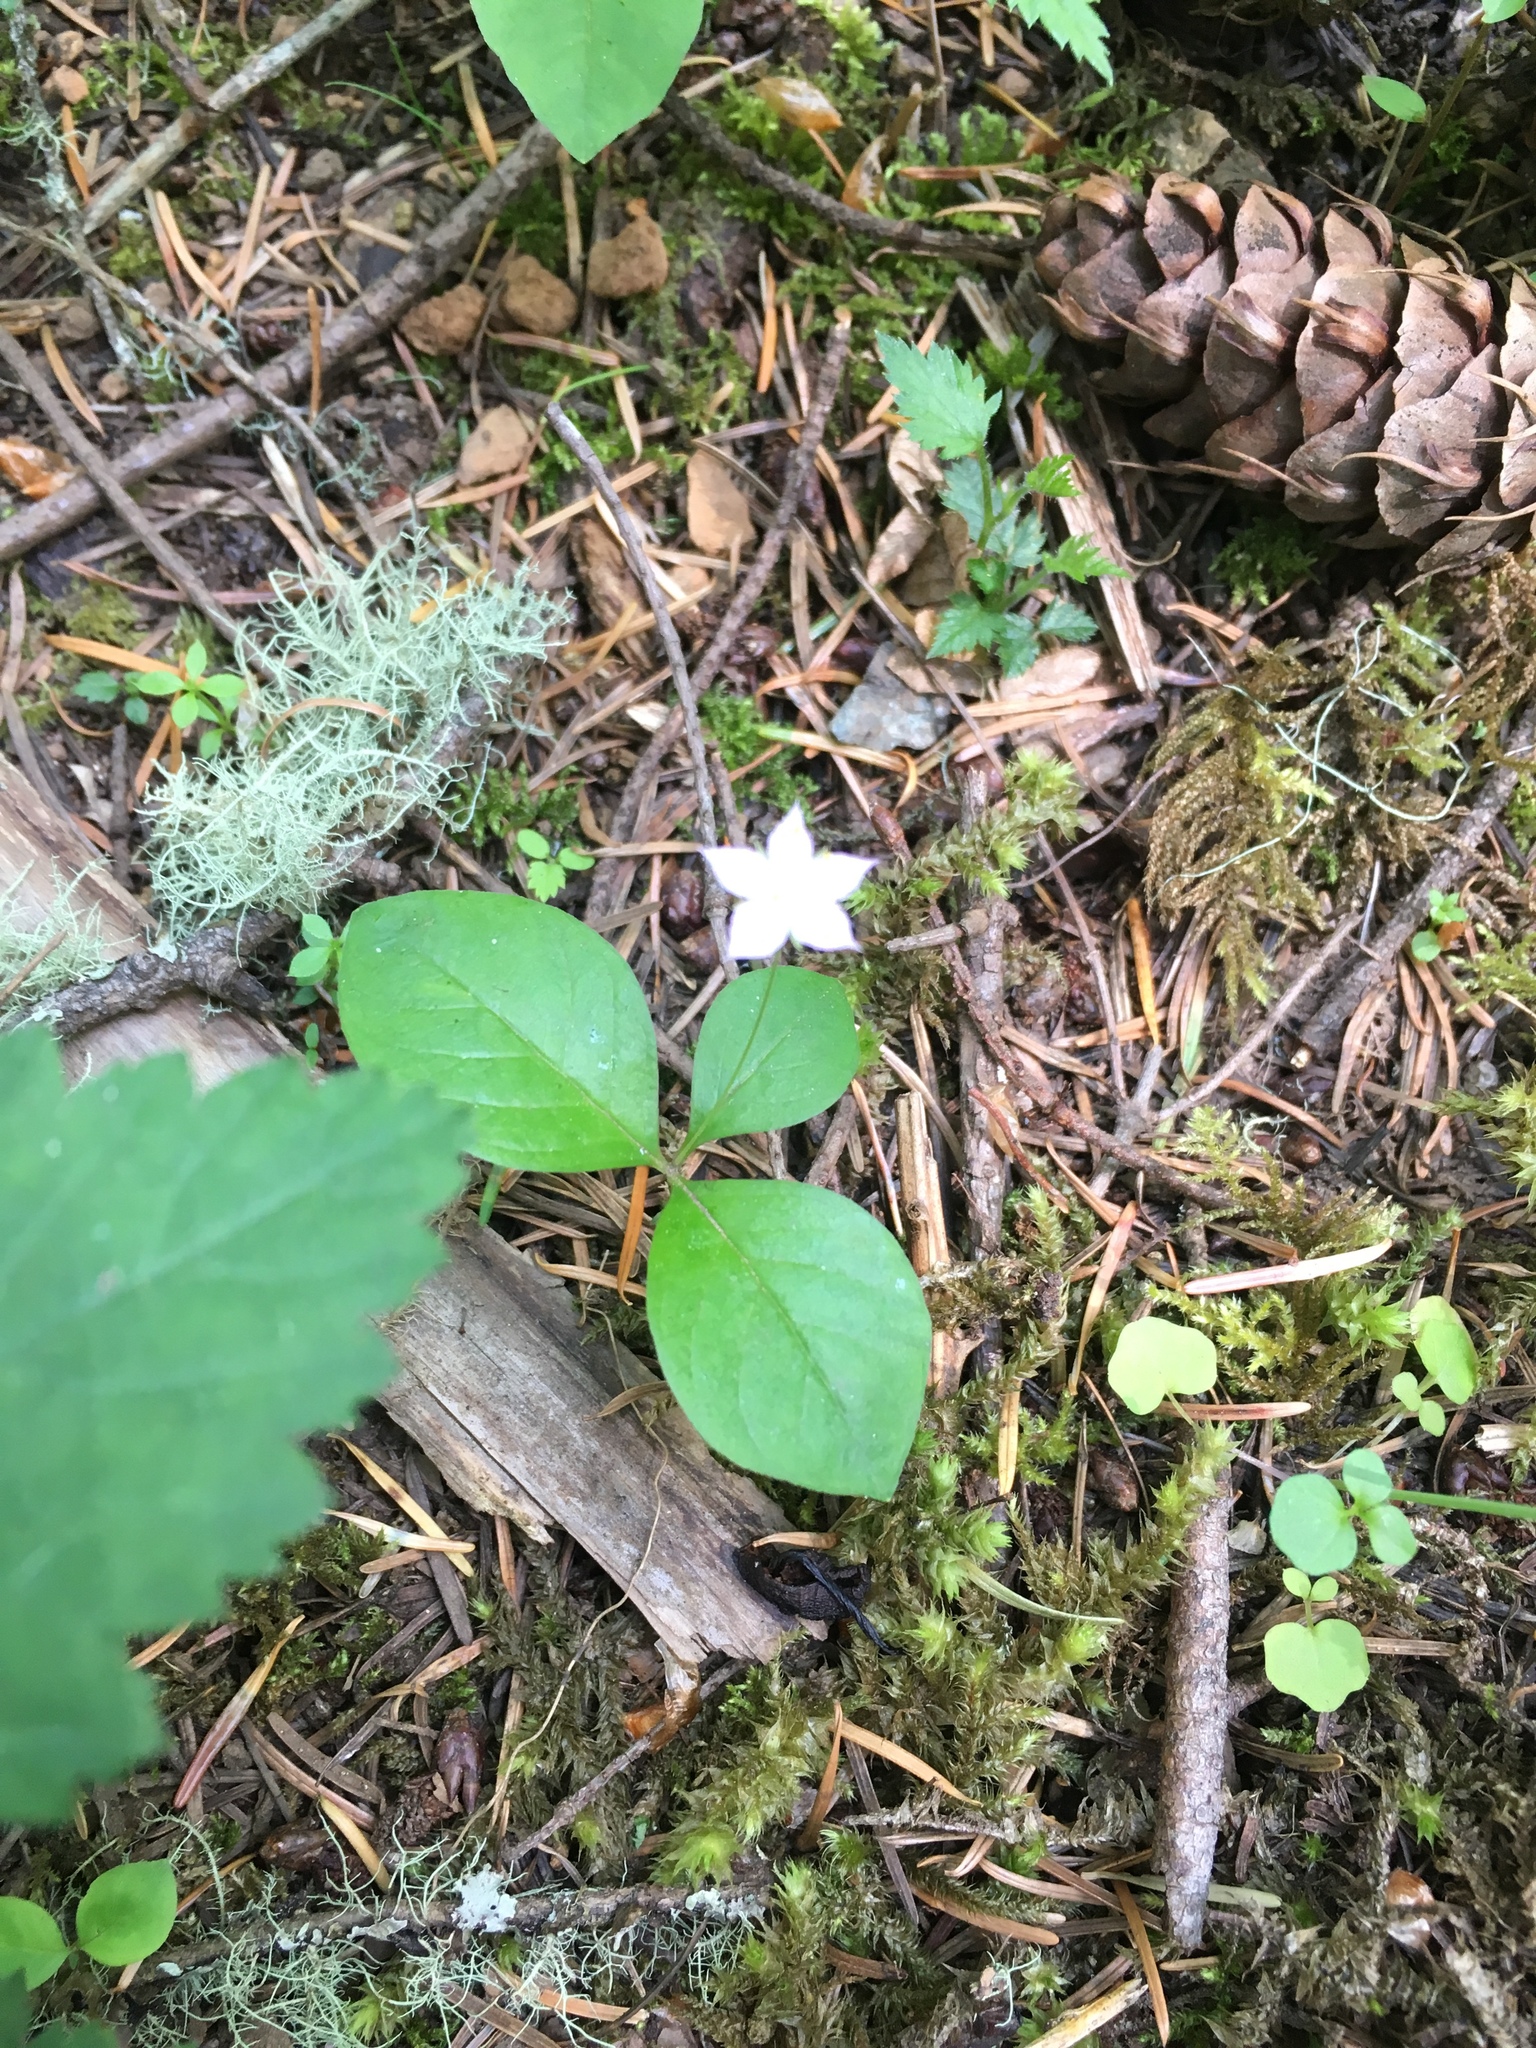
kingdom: Plantae
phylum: Tracheophyta
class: Magnoliopsida
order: Ericales
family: Primulaceae
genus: Lysimachia
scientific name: Lysimachia latifolia
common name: Pacific starflower
